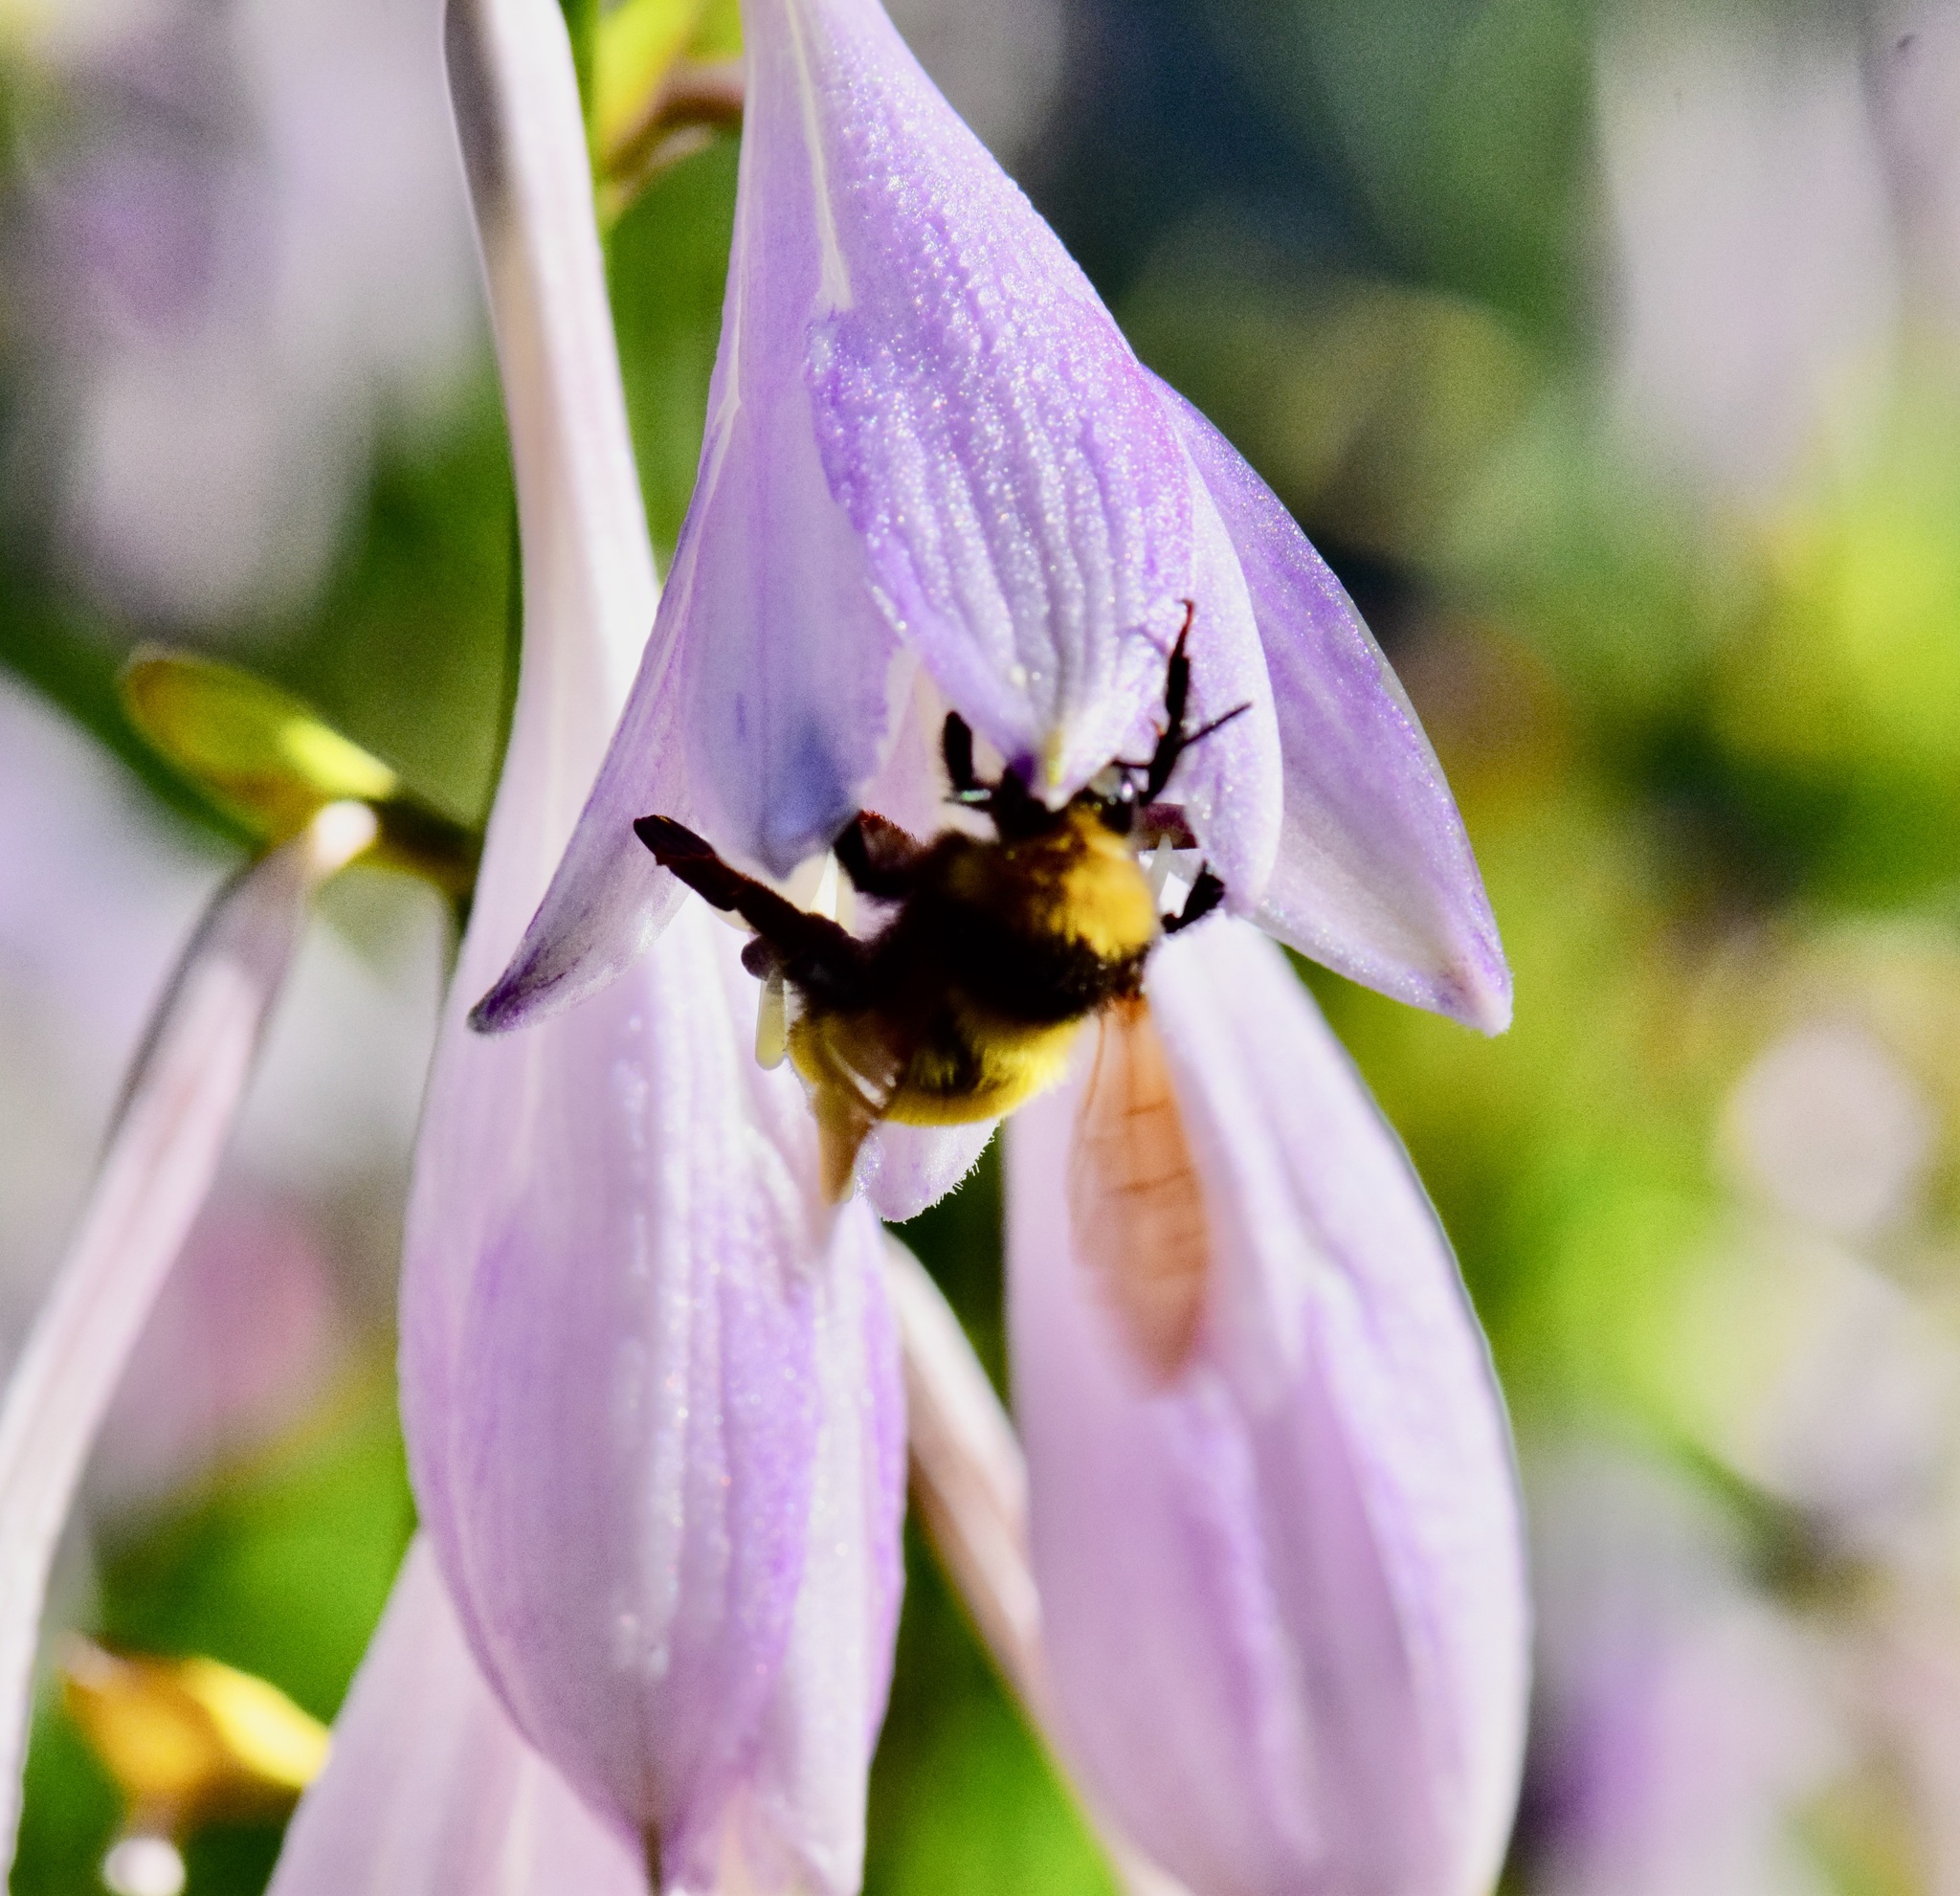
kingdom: Animalia
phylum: Arthropoda
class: Insecta
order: Hymenoptera
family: Apidae
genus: Bombus
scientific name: Bombus borealis
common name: Northern amber bumble bee
